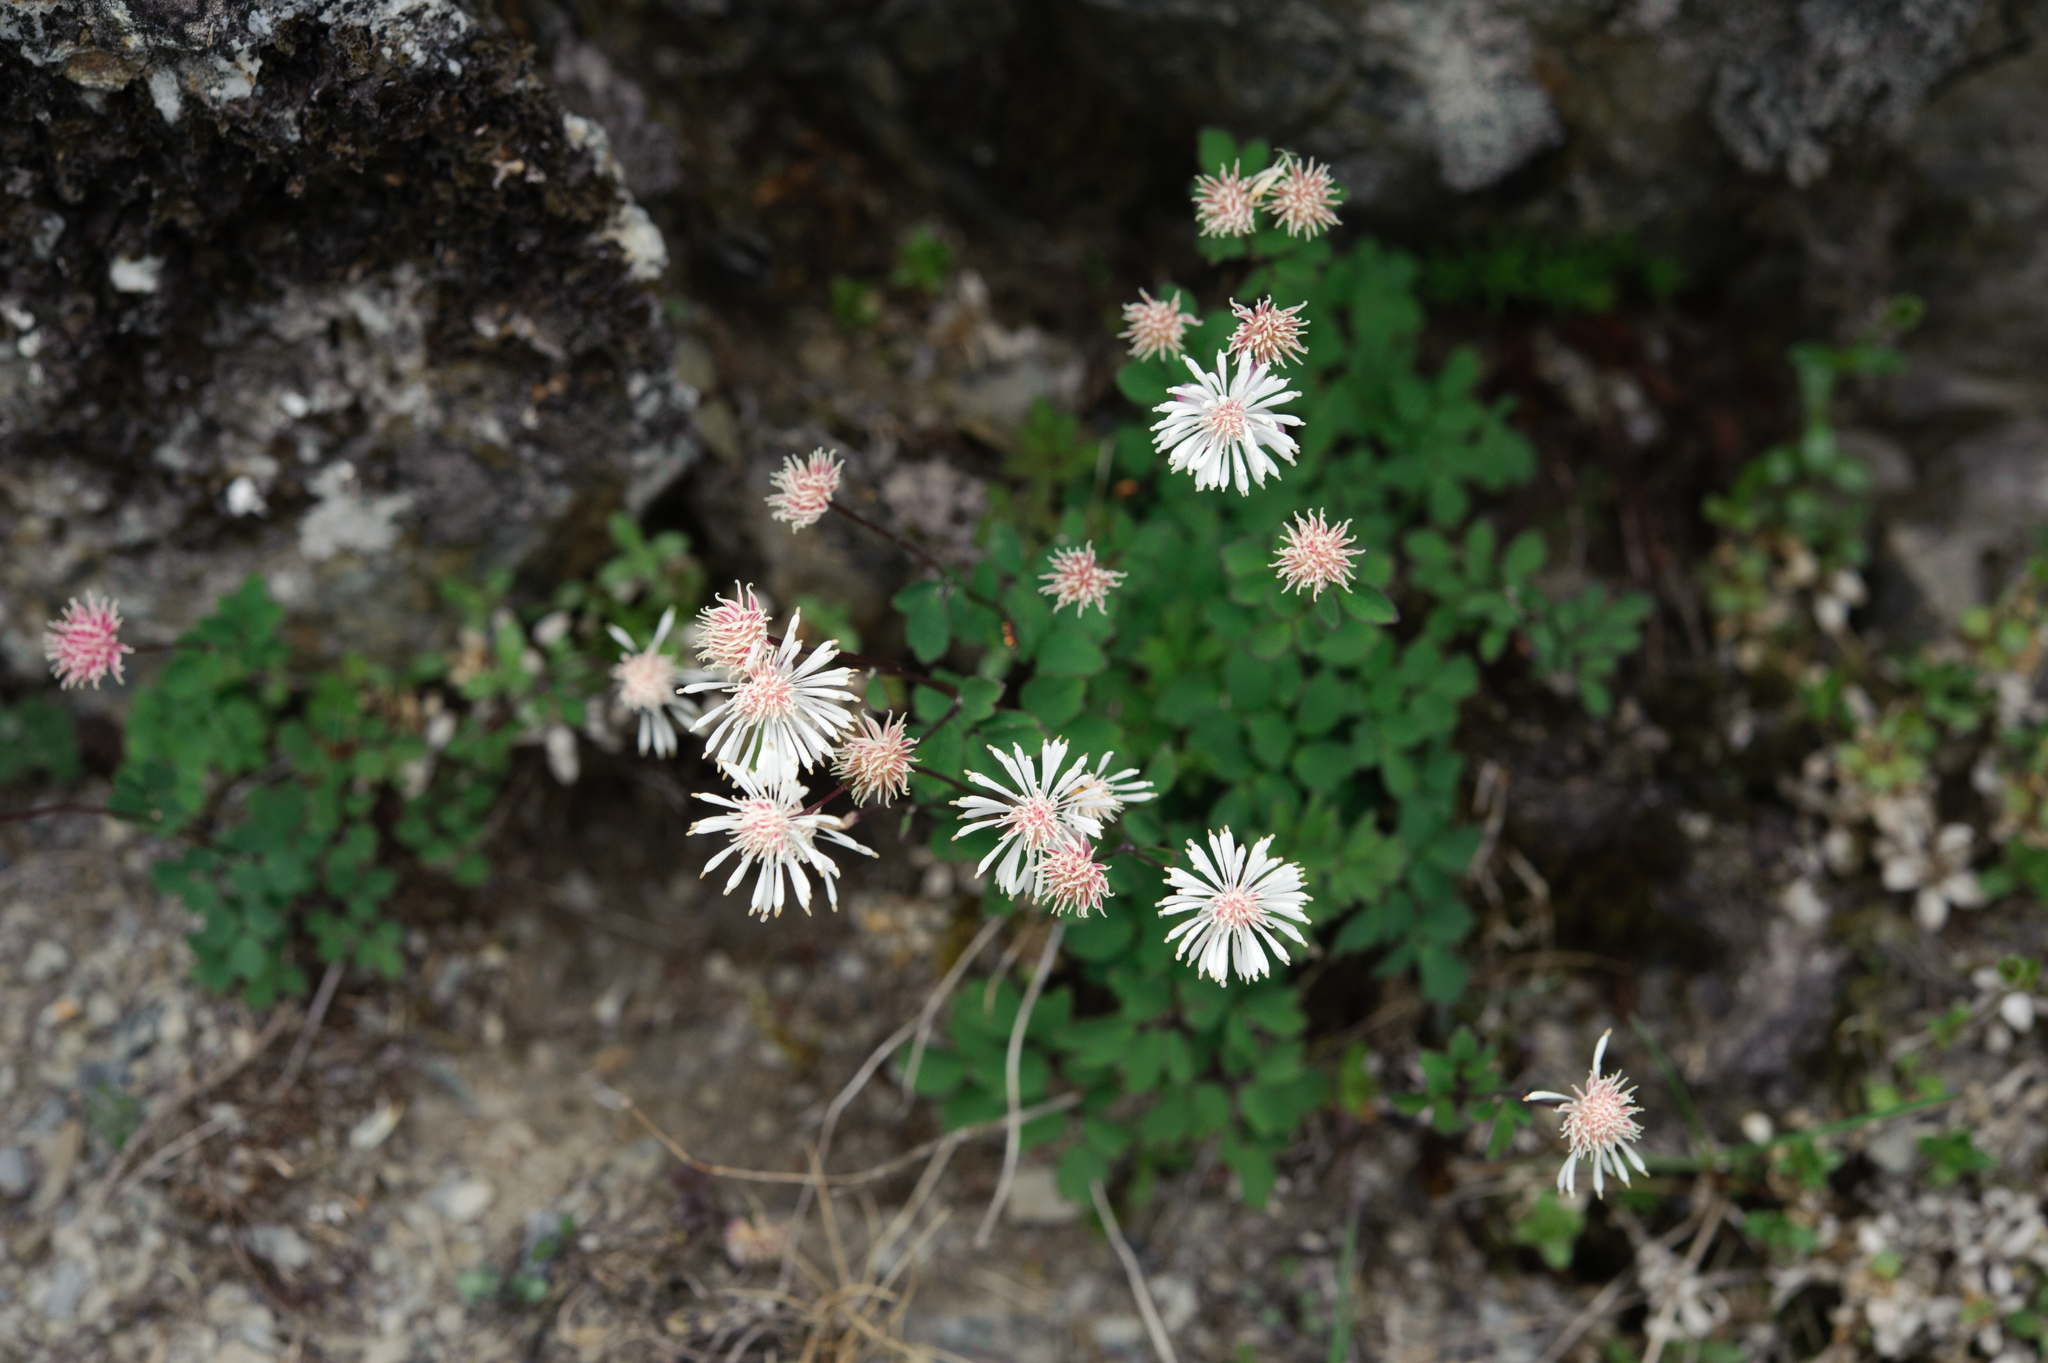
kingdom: Plantae
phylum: Tracheophyta
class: Magnoliopsida
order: Ranunculales
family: Ranunculaceae
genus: Thalictrum
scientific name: Thalictrum rubescens
